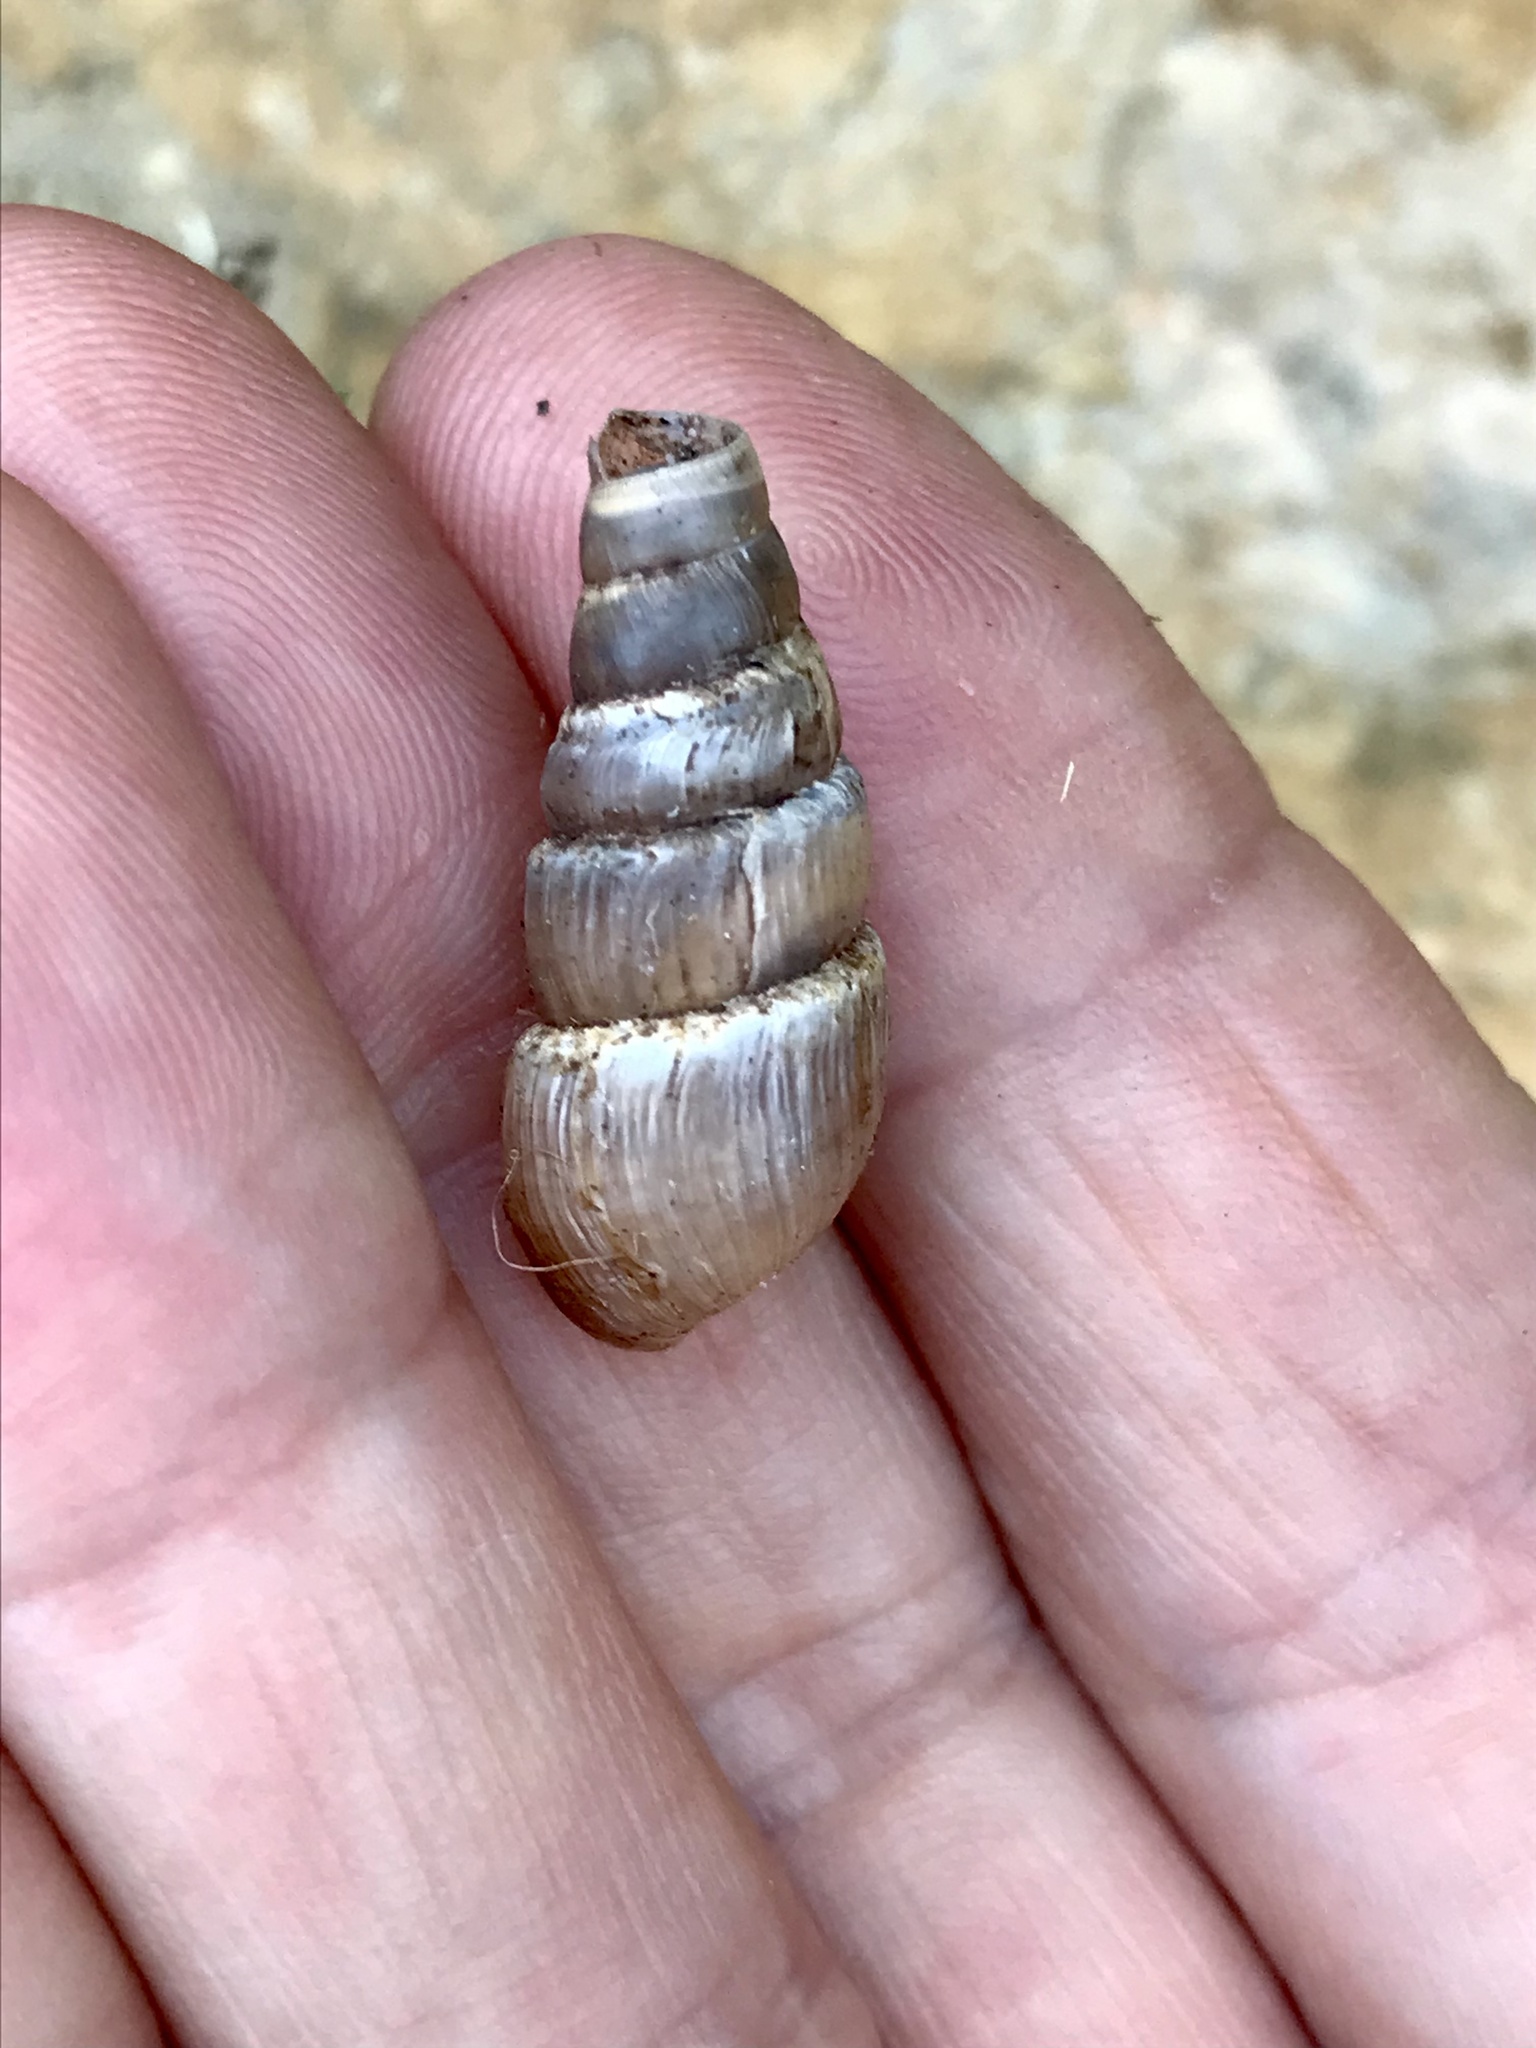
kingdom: Animalia
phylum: Mollusca
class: Gastropoda
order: Stylommatophora
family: Achatinidae
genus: Rumina
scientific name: Rumina decollata
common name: Decollate snail
